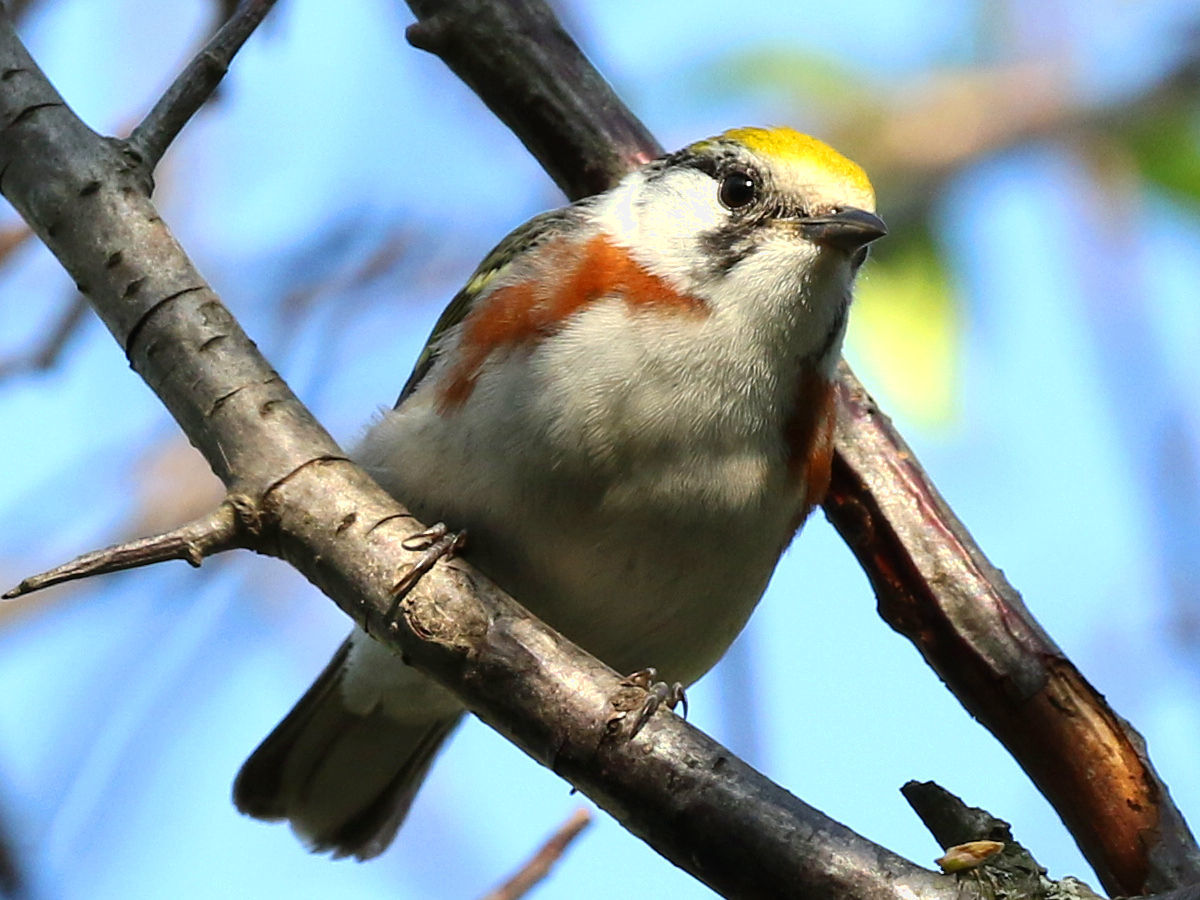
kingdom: Animalia
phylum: Chordata
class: Aves
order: Passeriformes
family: Parulidae
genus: Setophaga
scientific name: Setophaga pensylvanica
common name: Chestnut-sided warbler
